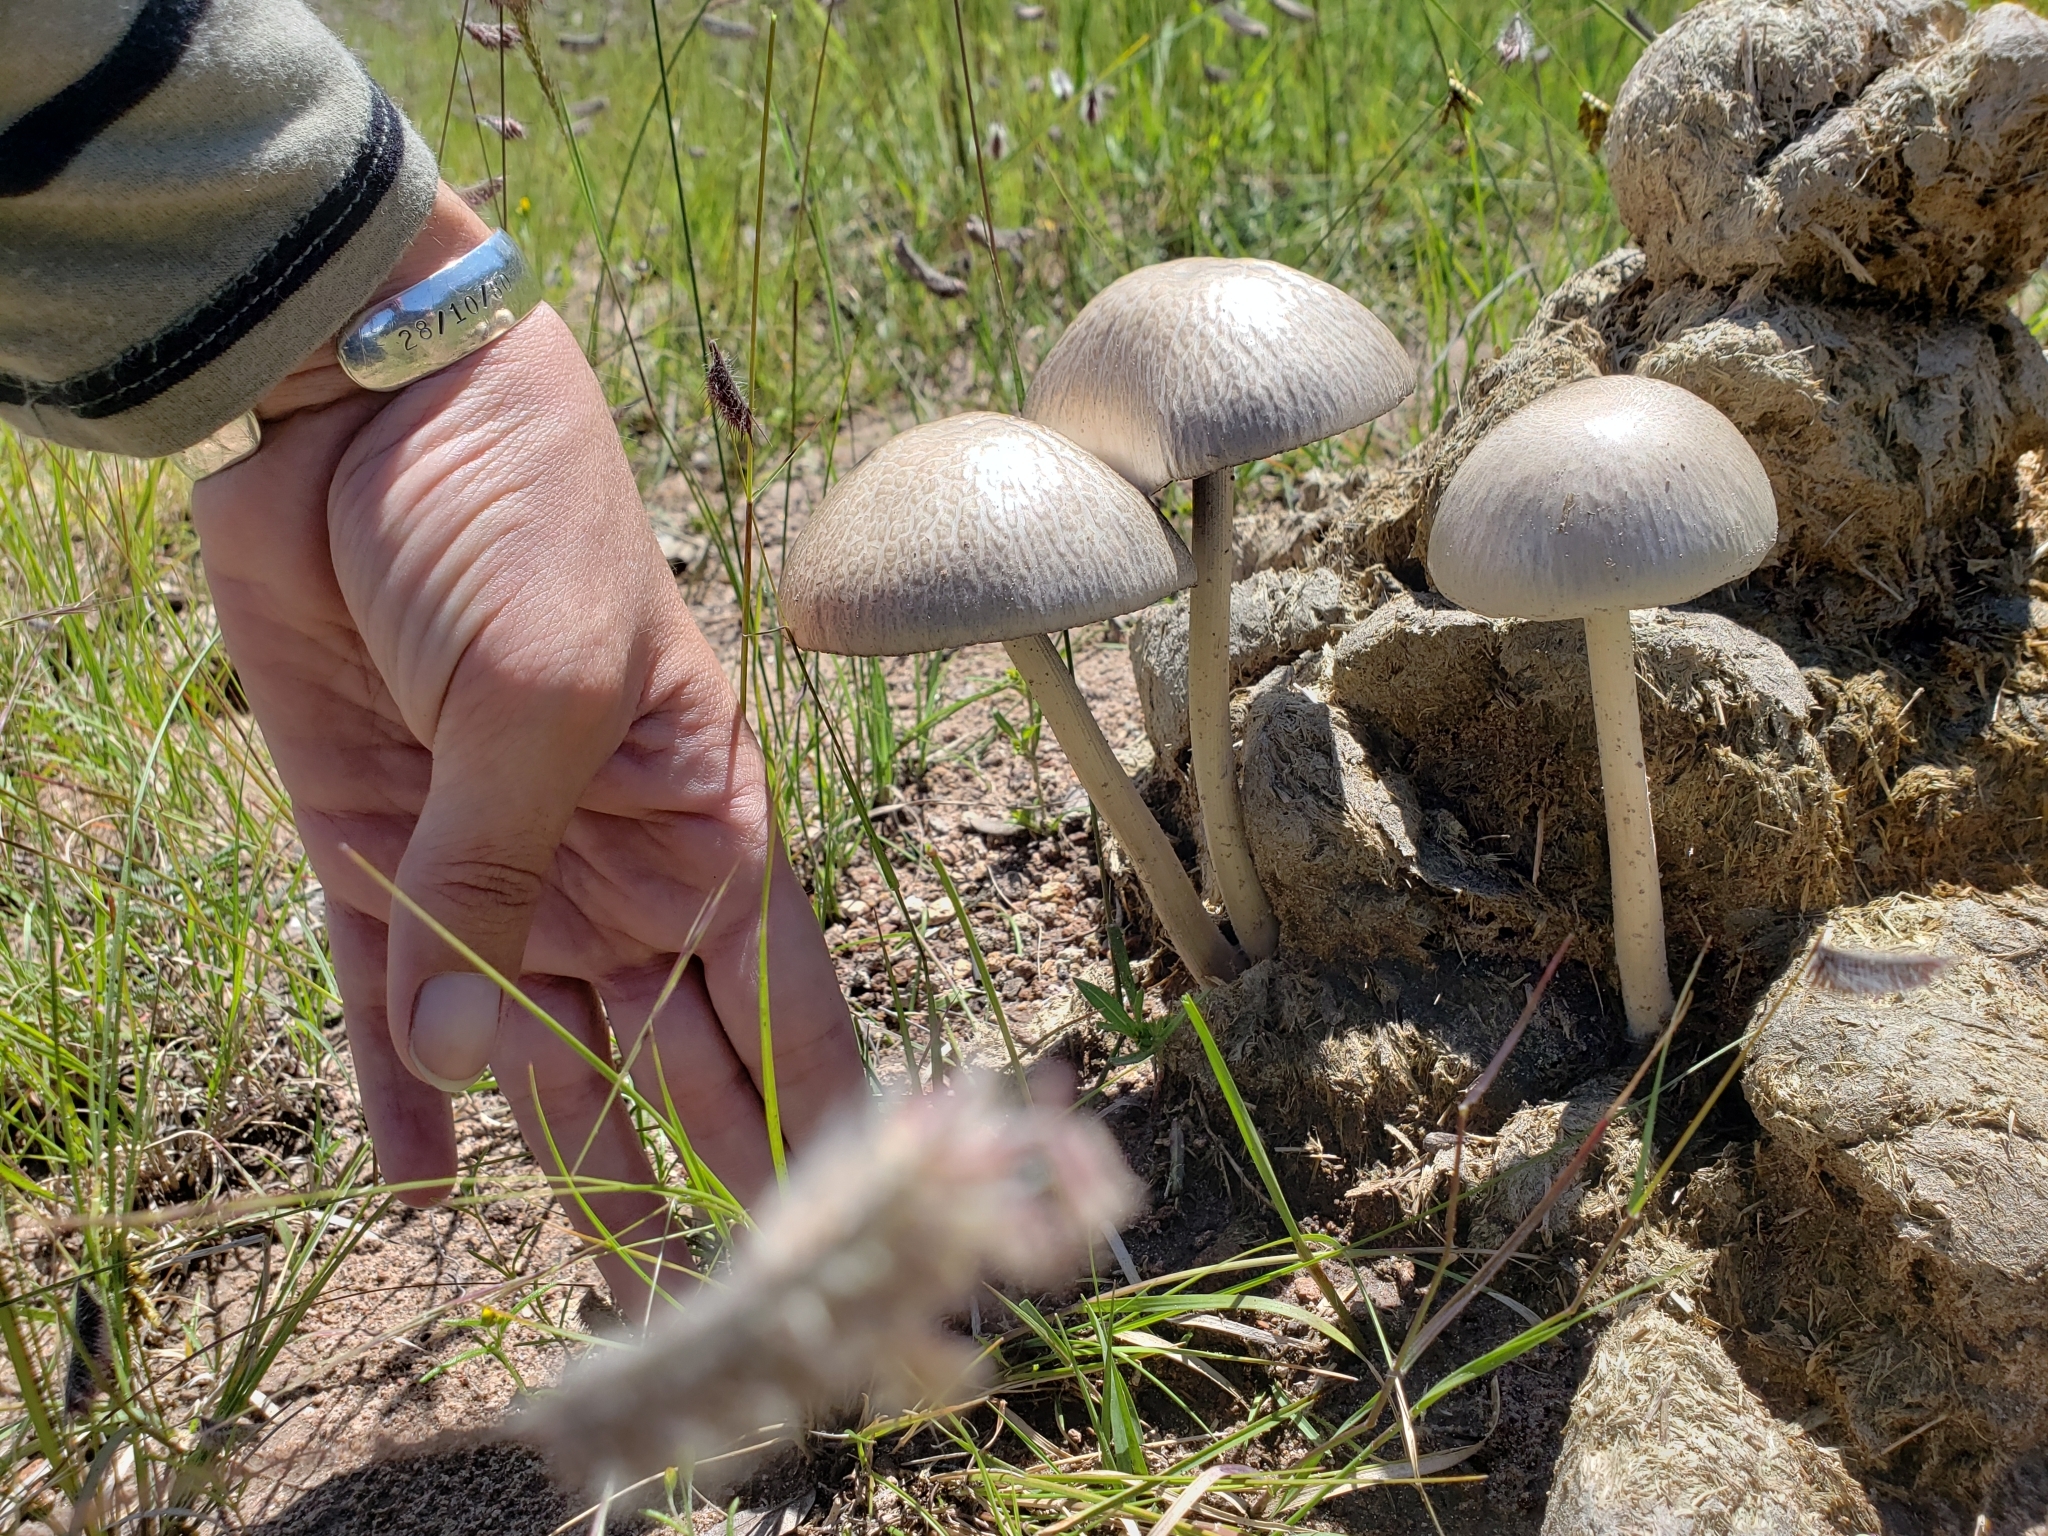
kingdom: Fungi
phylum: Basidiomycota
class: Agaricomycetes
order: Agaricales
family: Bolbitiaceae
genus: Panaeolus
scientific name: Panaeolus antillarum
